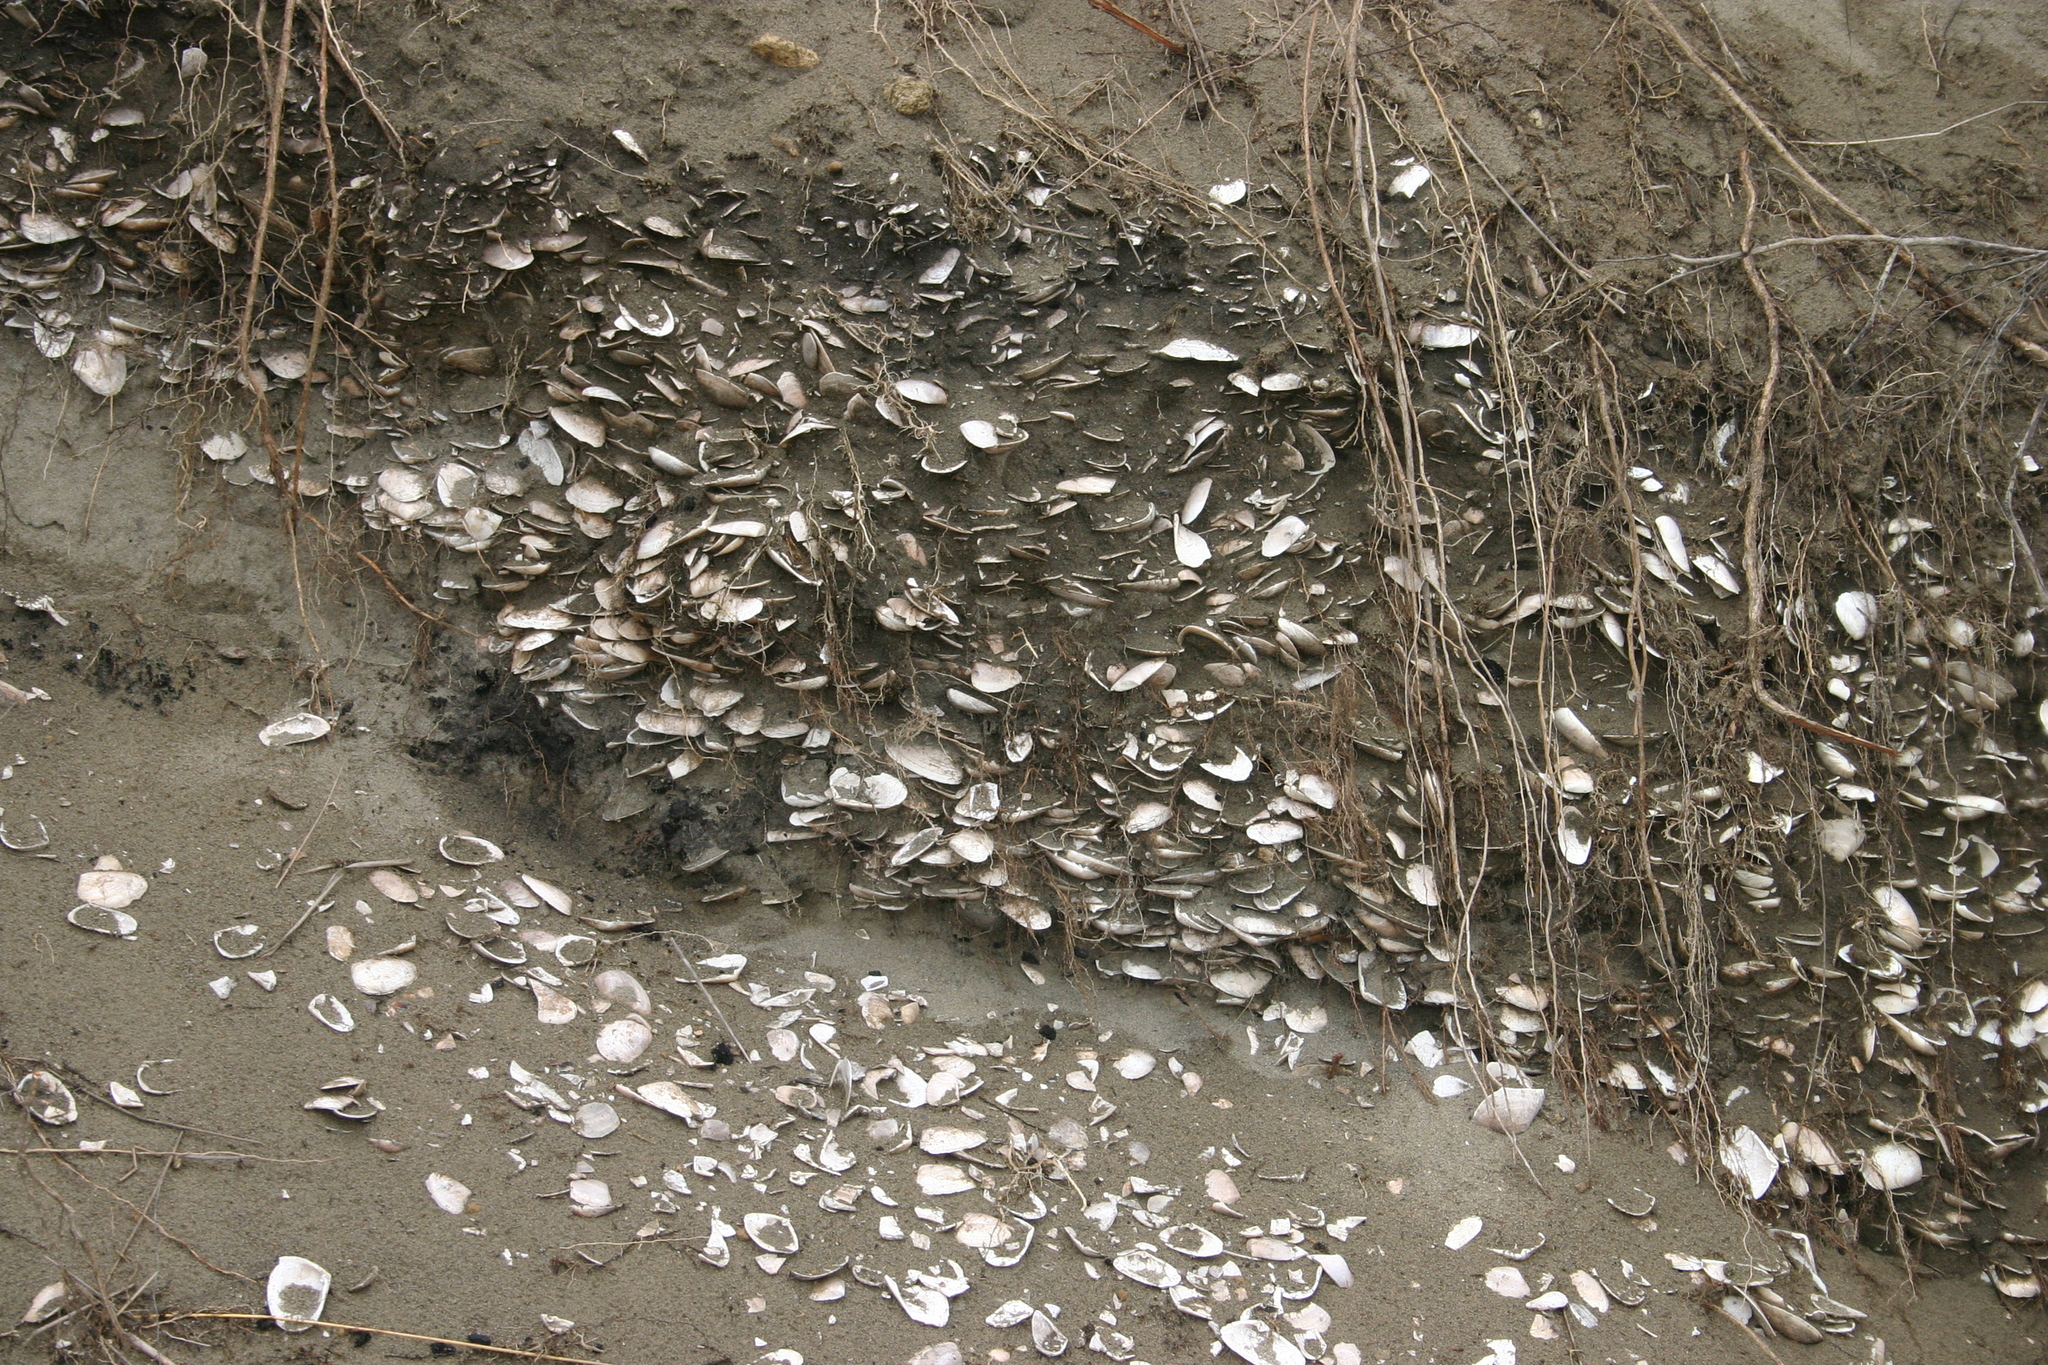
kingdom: Animalia
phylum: Mollusca
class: Bivalvia
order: Venerida
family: Mesodesmatidae
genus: Paphies
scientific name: Paphies subtriangulata
